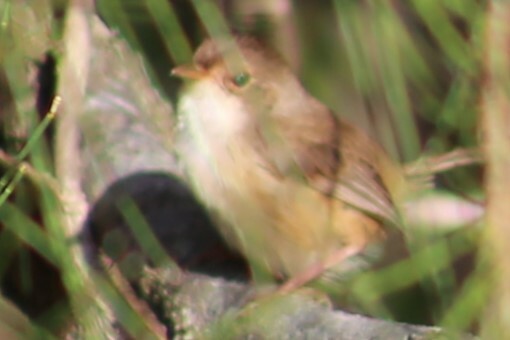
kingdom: Animalia
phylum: Chordata
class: Aves
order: Passeriformes
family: Maluridae
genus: Malurus
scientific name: Malurus melanocephalus
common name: Red-backed fairywren
